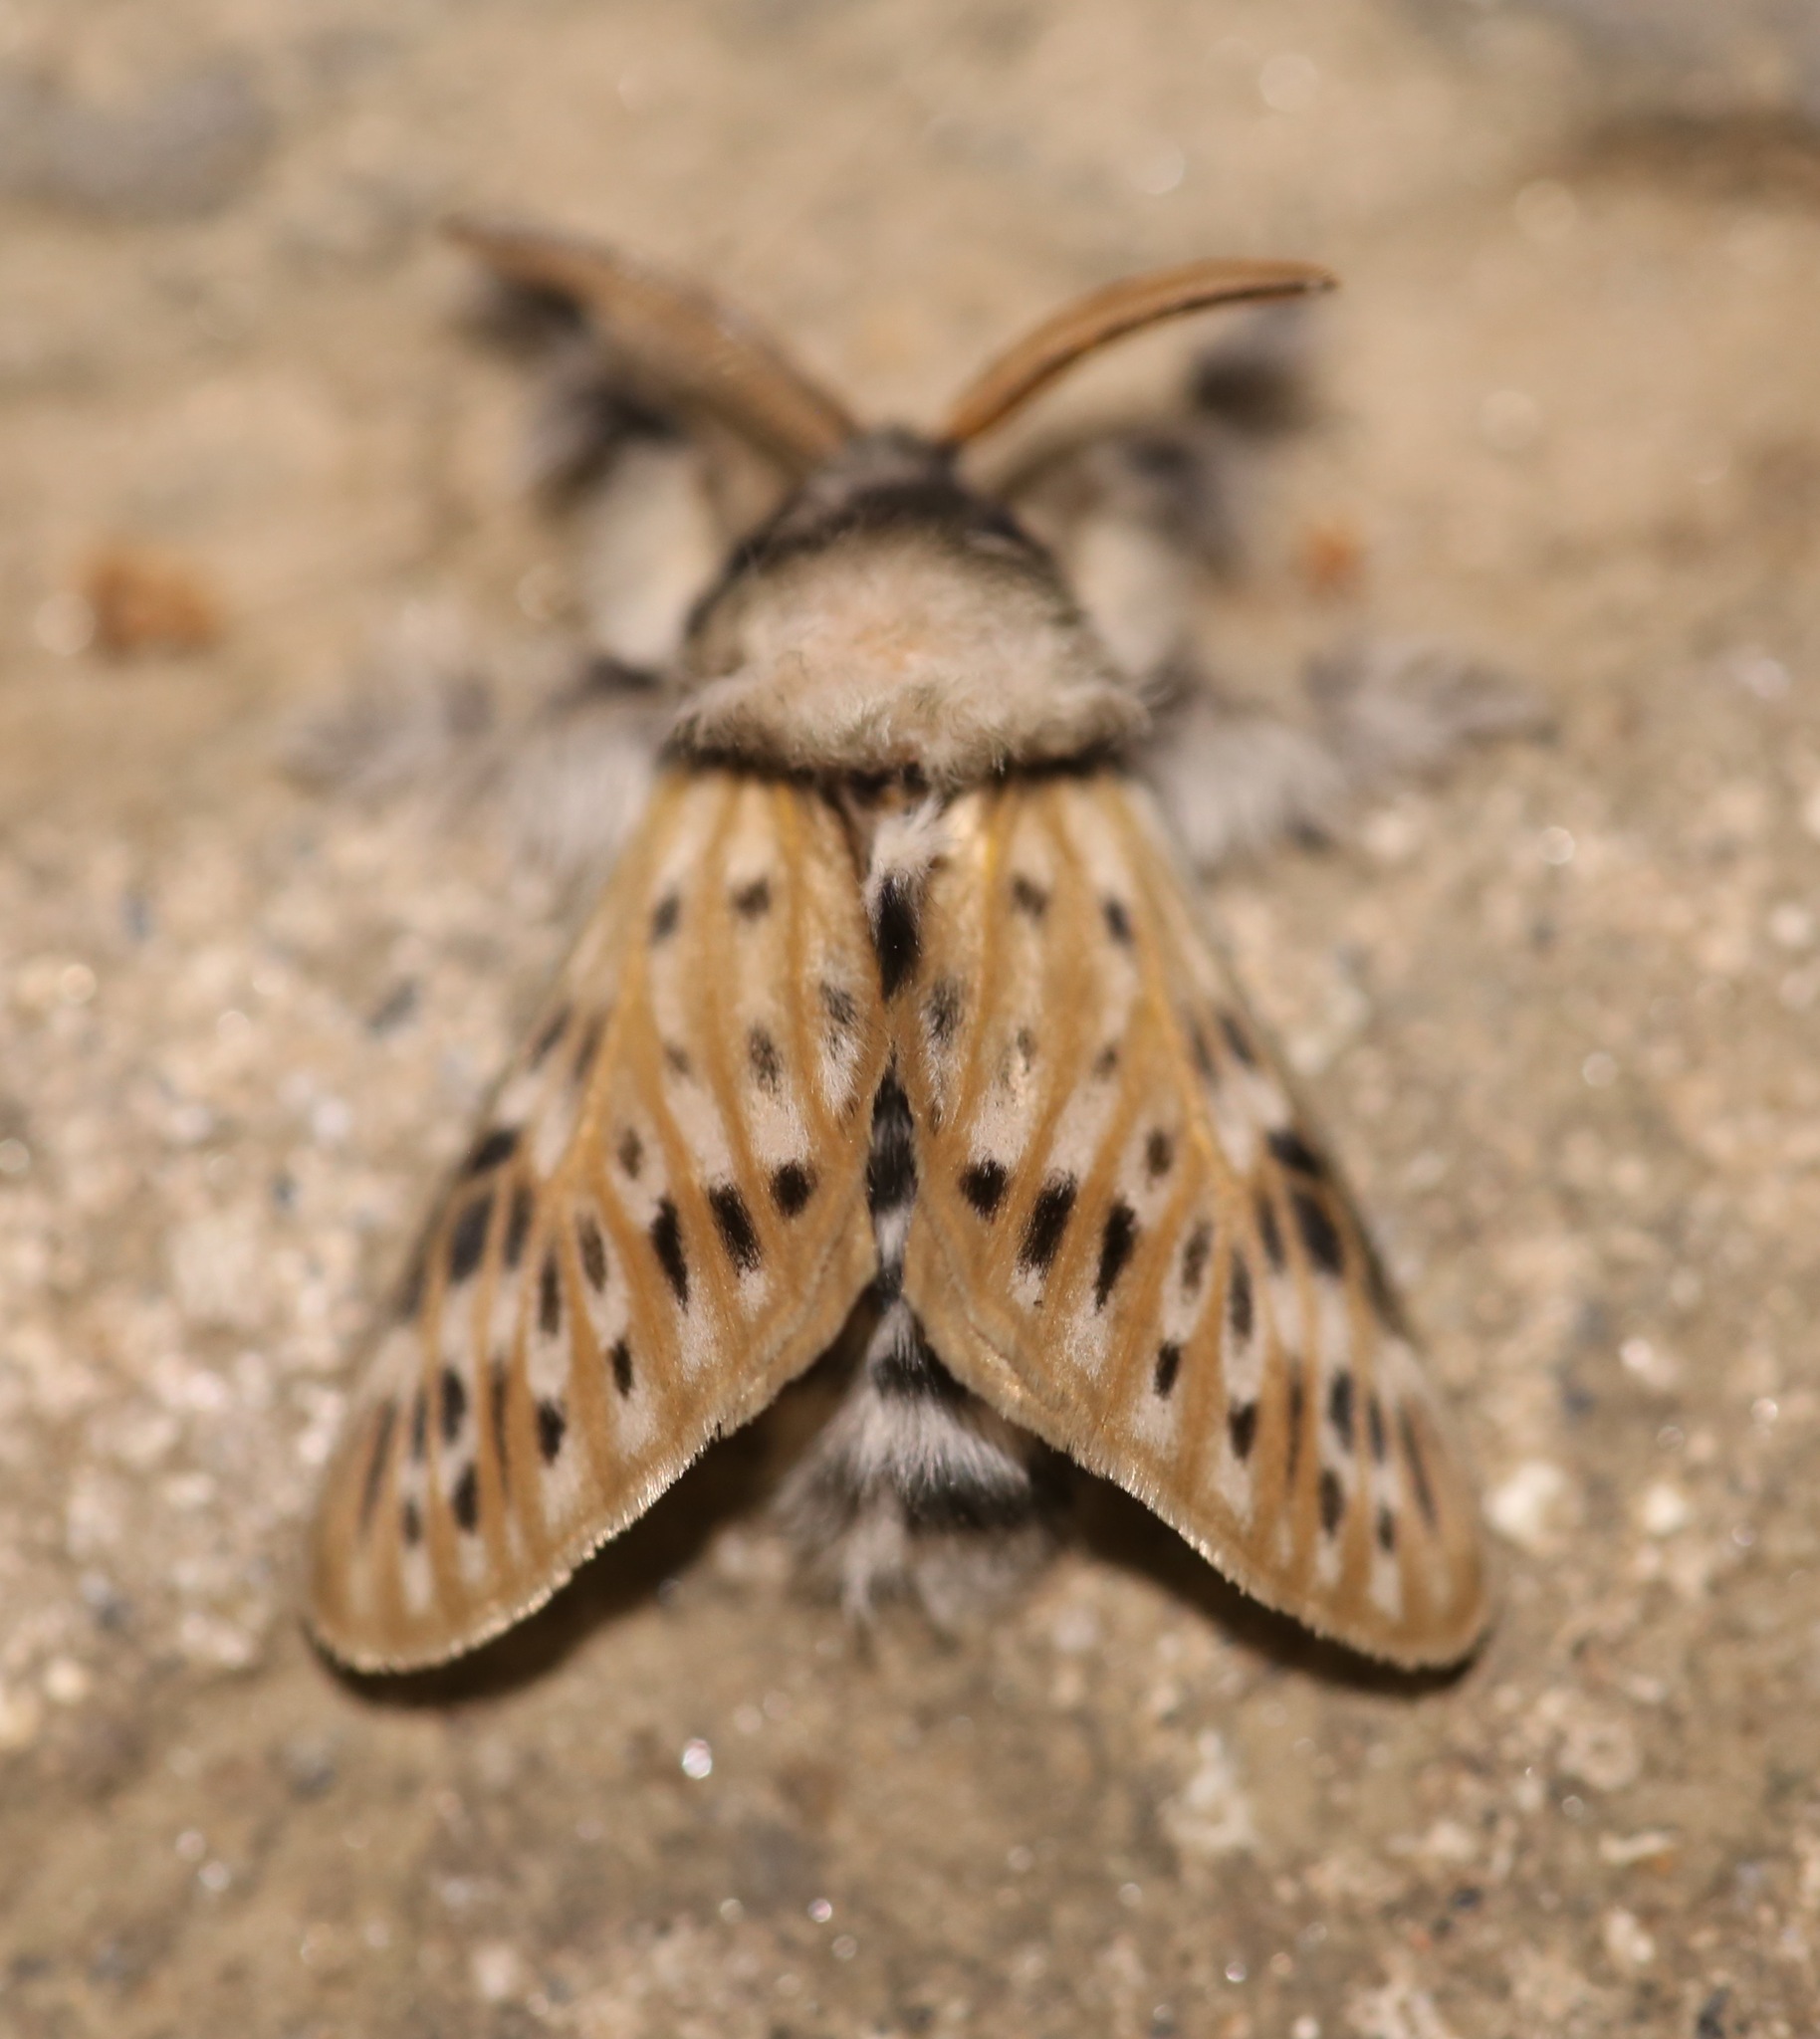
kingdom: Animalia
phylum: Arthropoda
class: Insecta
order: Lepidoptera
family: Megalopygidae
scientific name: Megalopygidae
